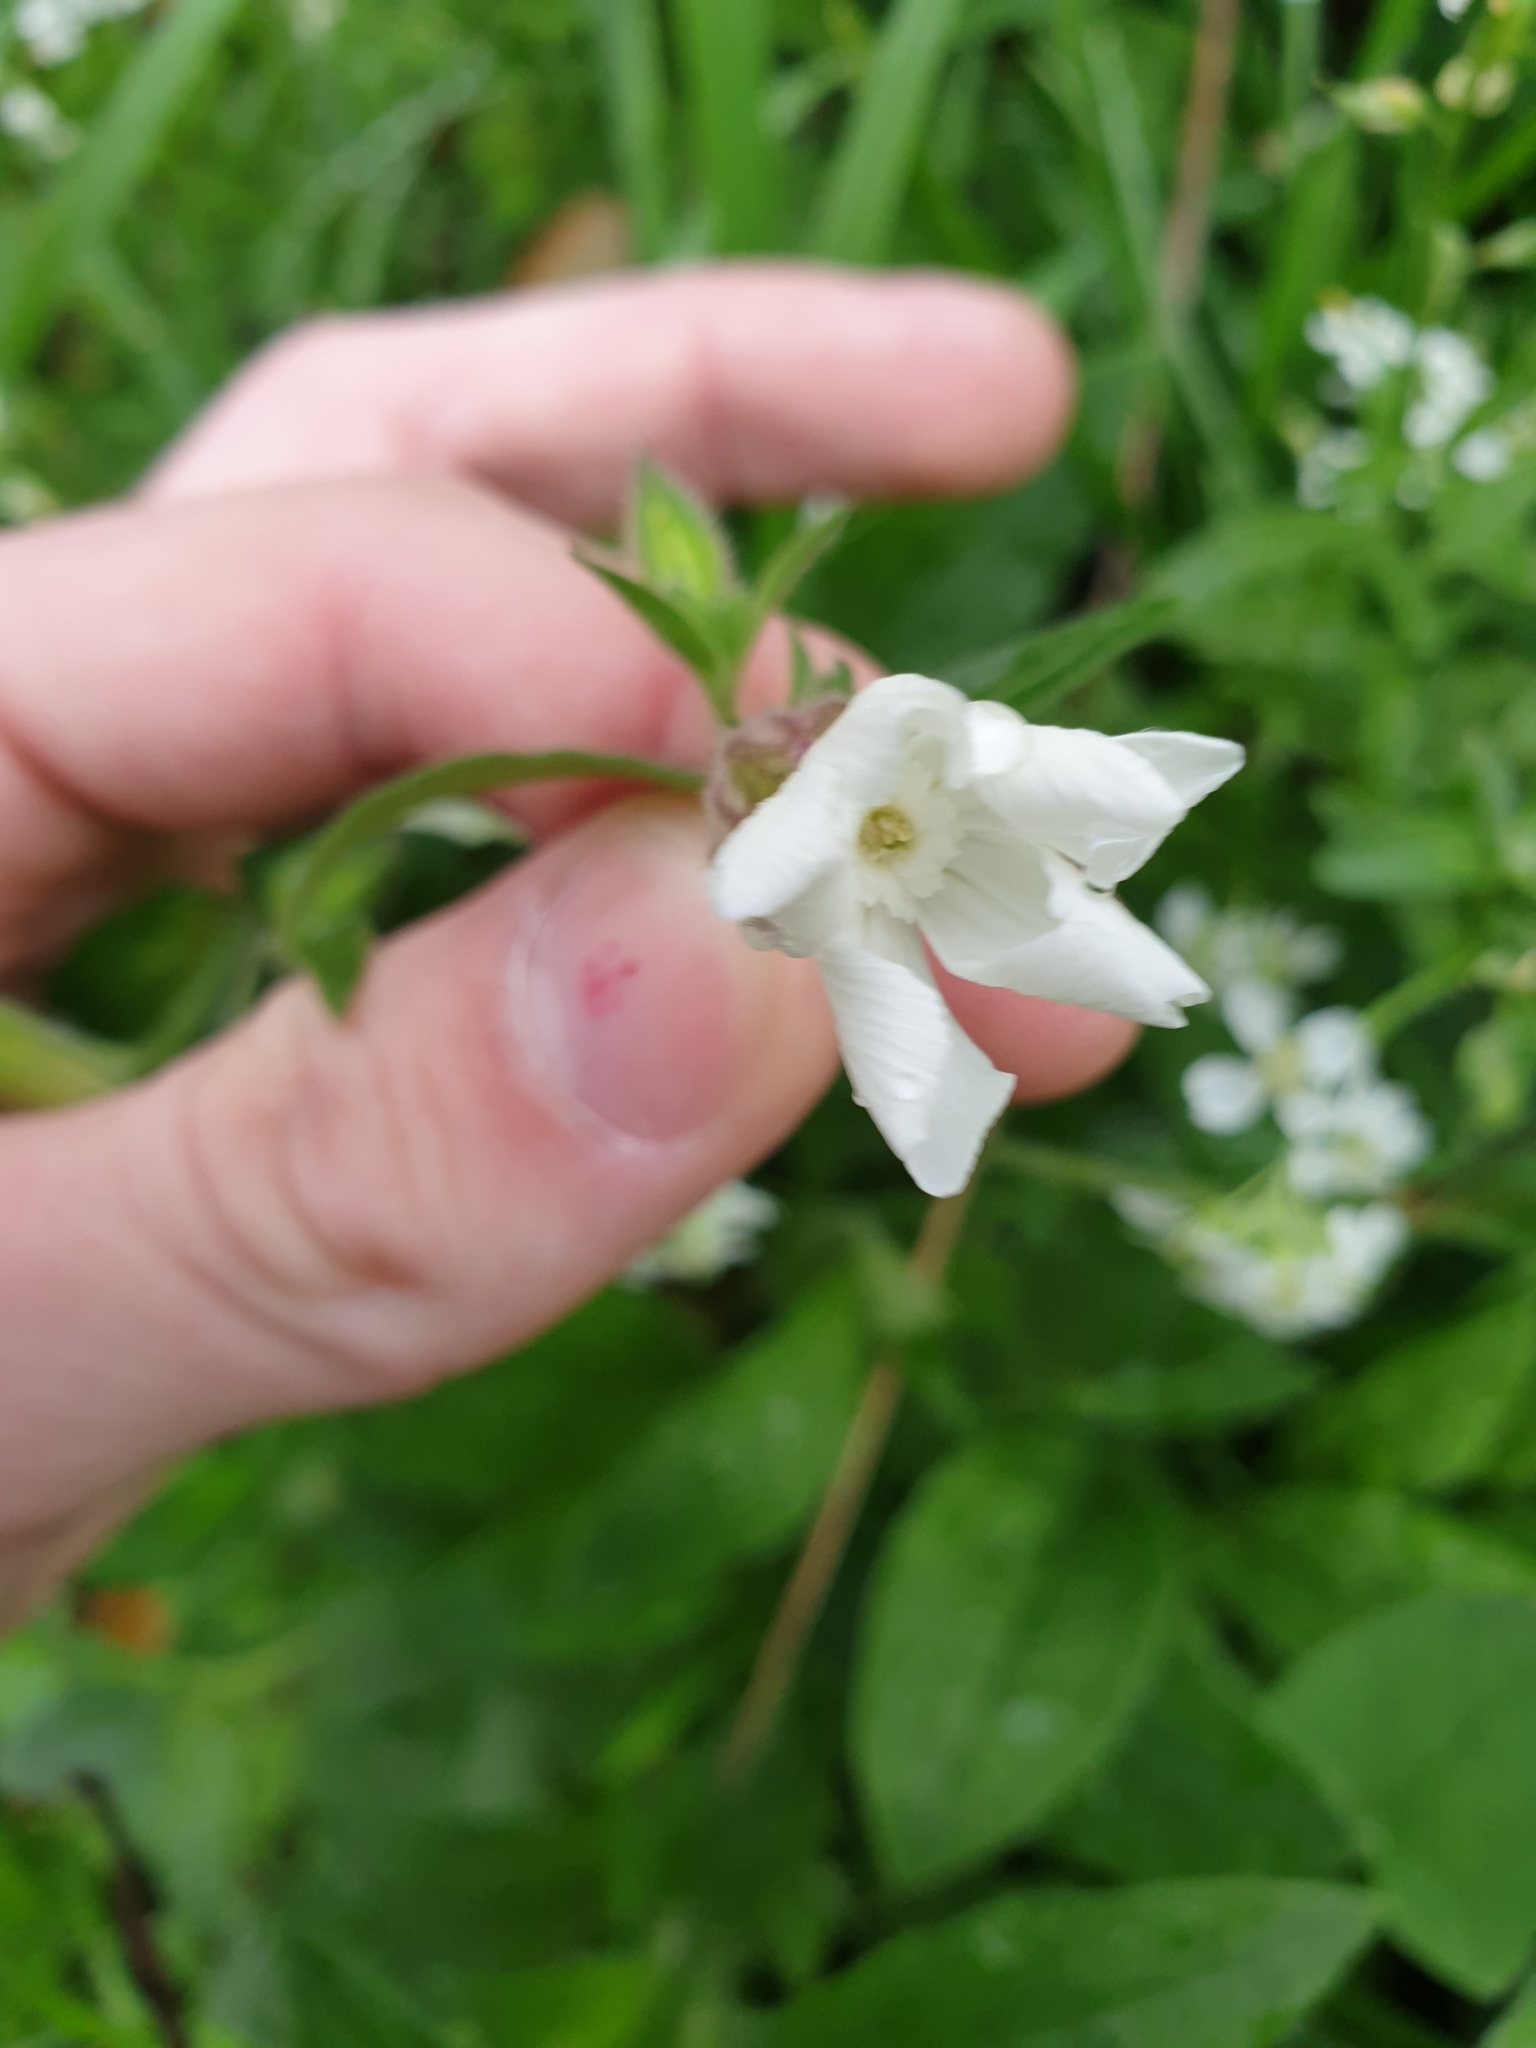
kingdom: Plantae
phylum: Tracheophyta
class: Magnoliopsida
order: Caryophyllales
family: Caryophyllaceae
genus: Silene
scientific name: Silene latifolia
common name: White campion
